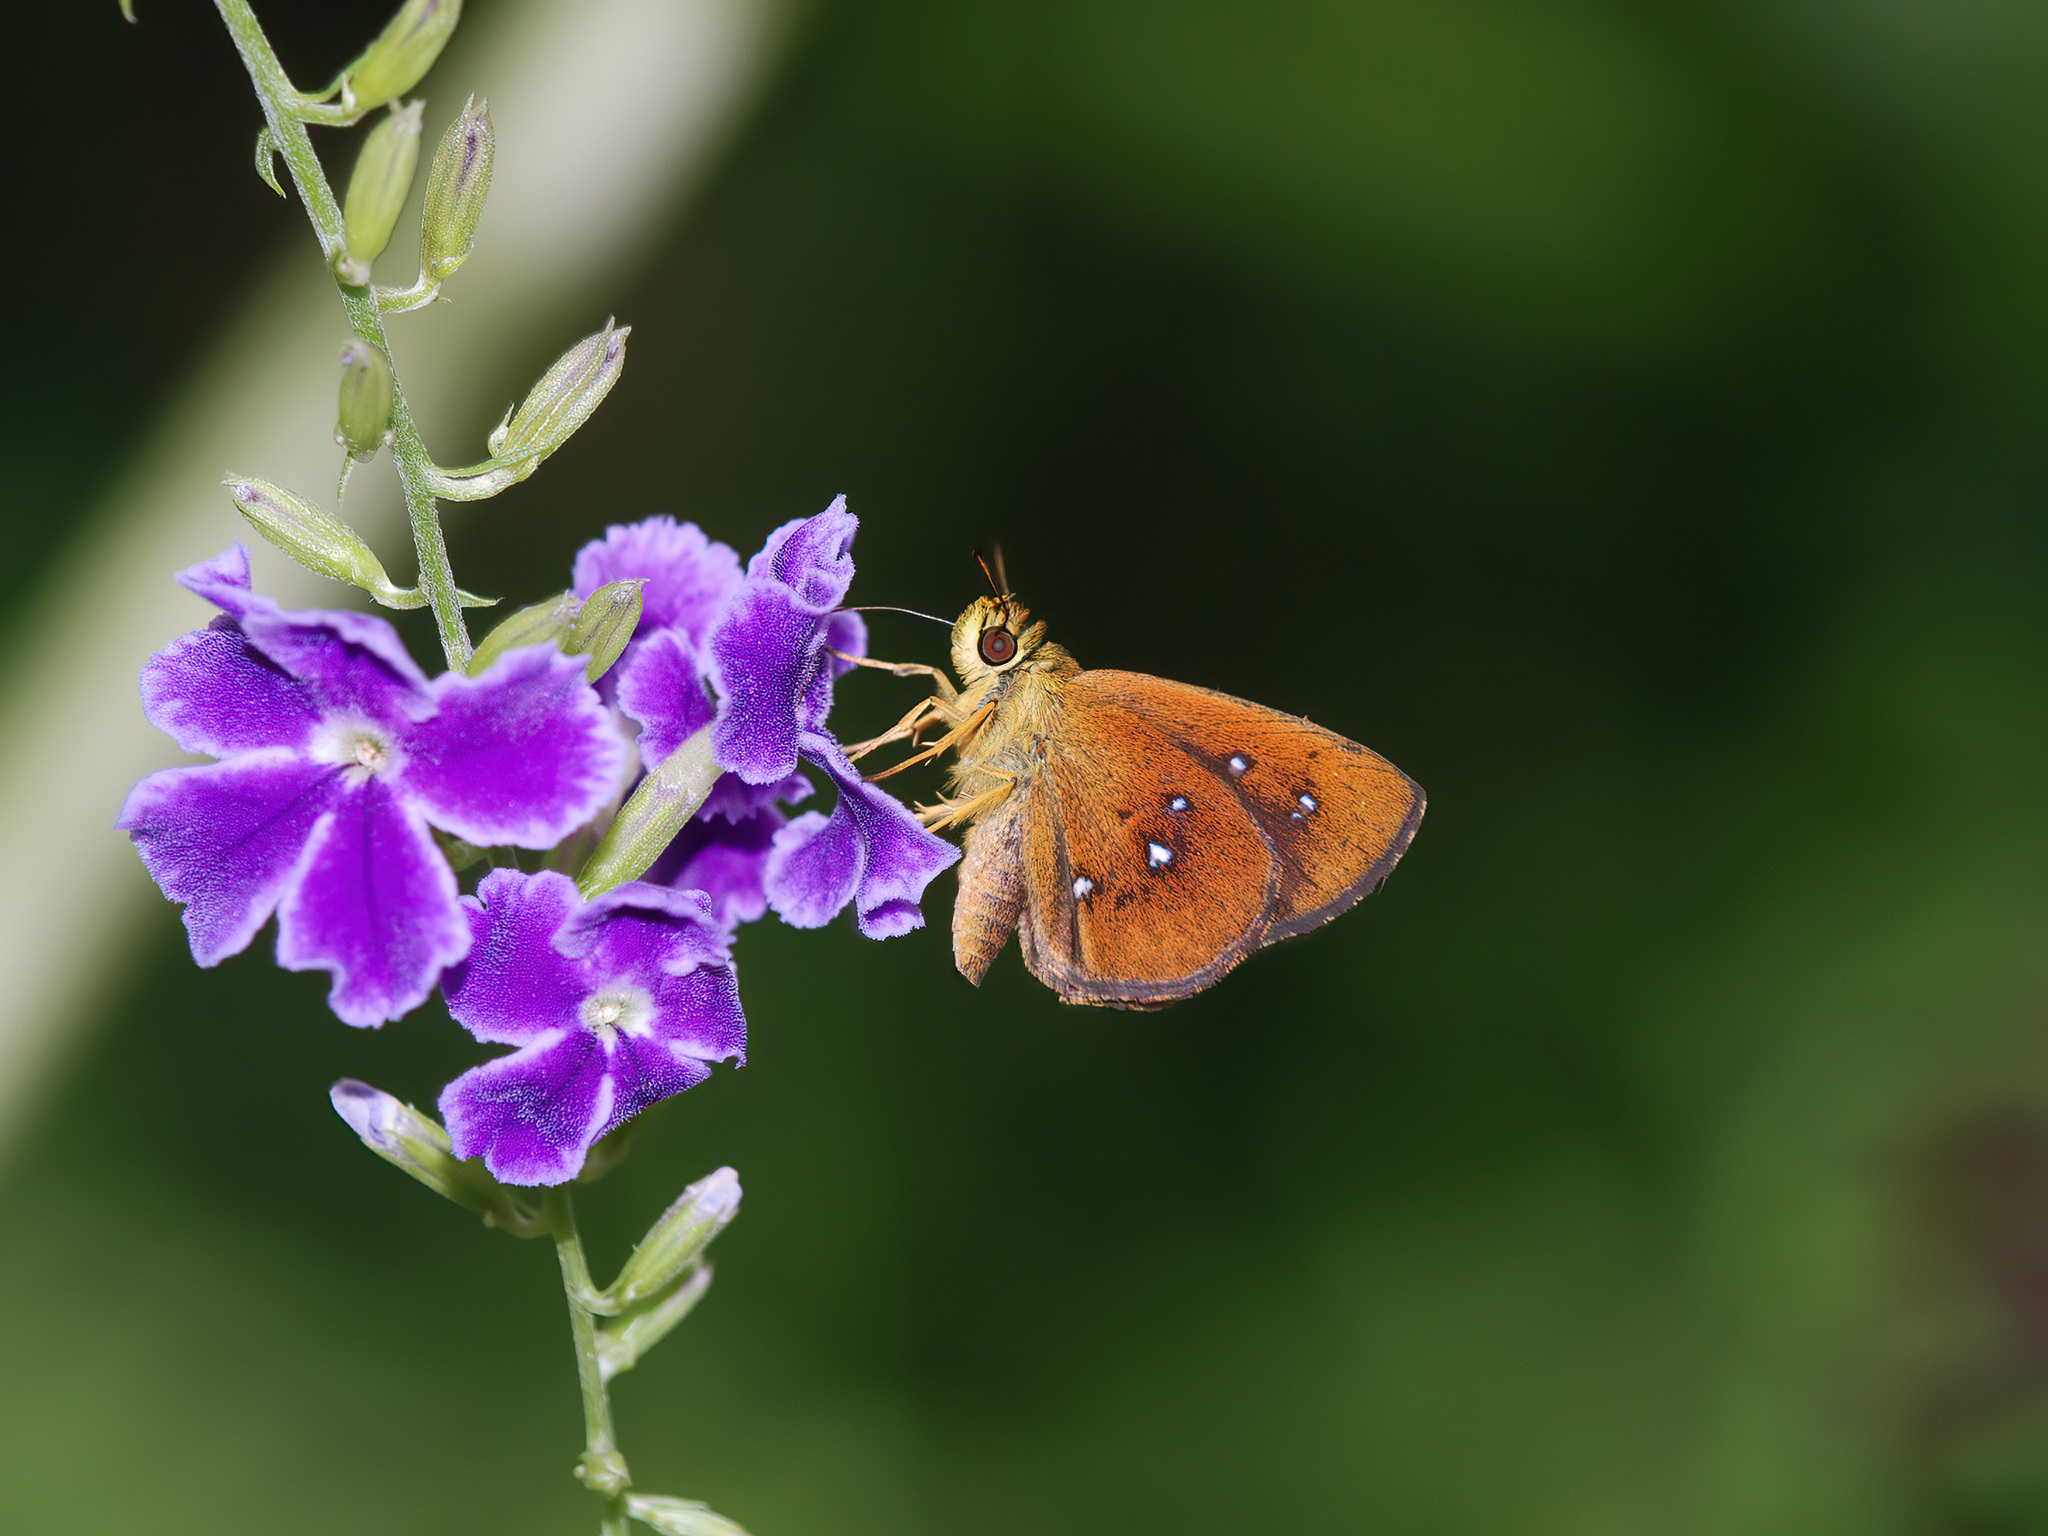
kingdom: Animalia
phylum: Arthropoda
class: Insecta
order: Lepidoptera
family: Hesperiidae
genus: Iambrix
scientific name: Iambrix salsala
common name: Chestnut bob
